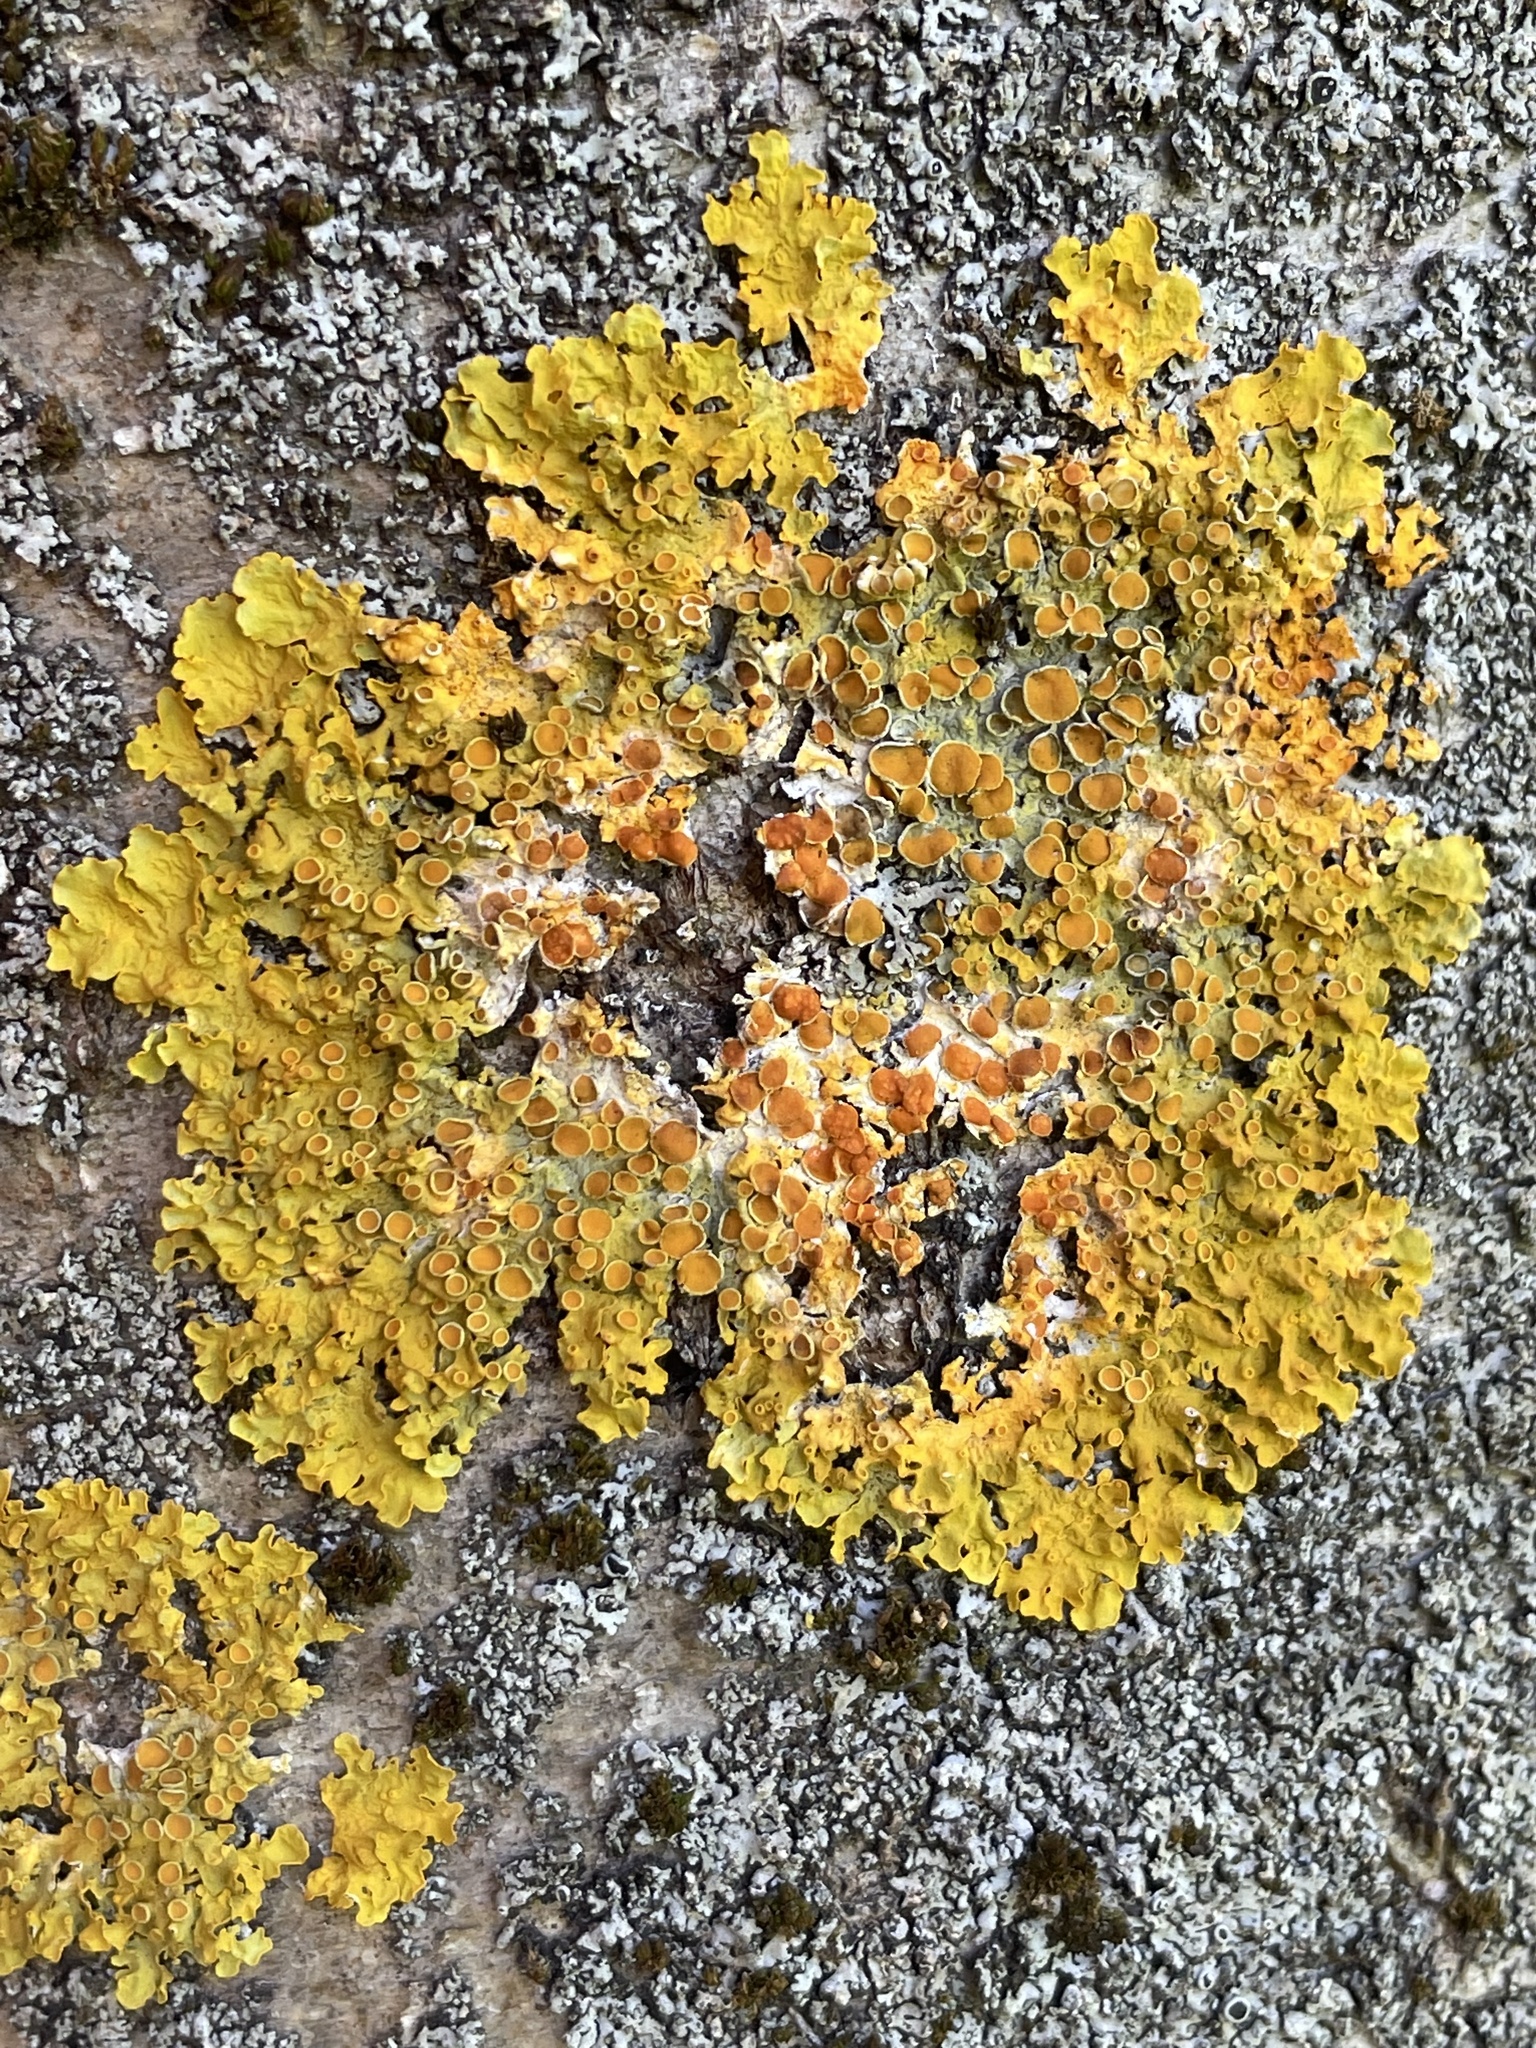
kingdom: Fungi
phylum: Ascomycota
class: Lecanoromycetes
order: Teloschistales
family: Teloschistaceae
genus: Xanthoria
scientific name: Xanthoria parietina
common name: Common orange lichen
